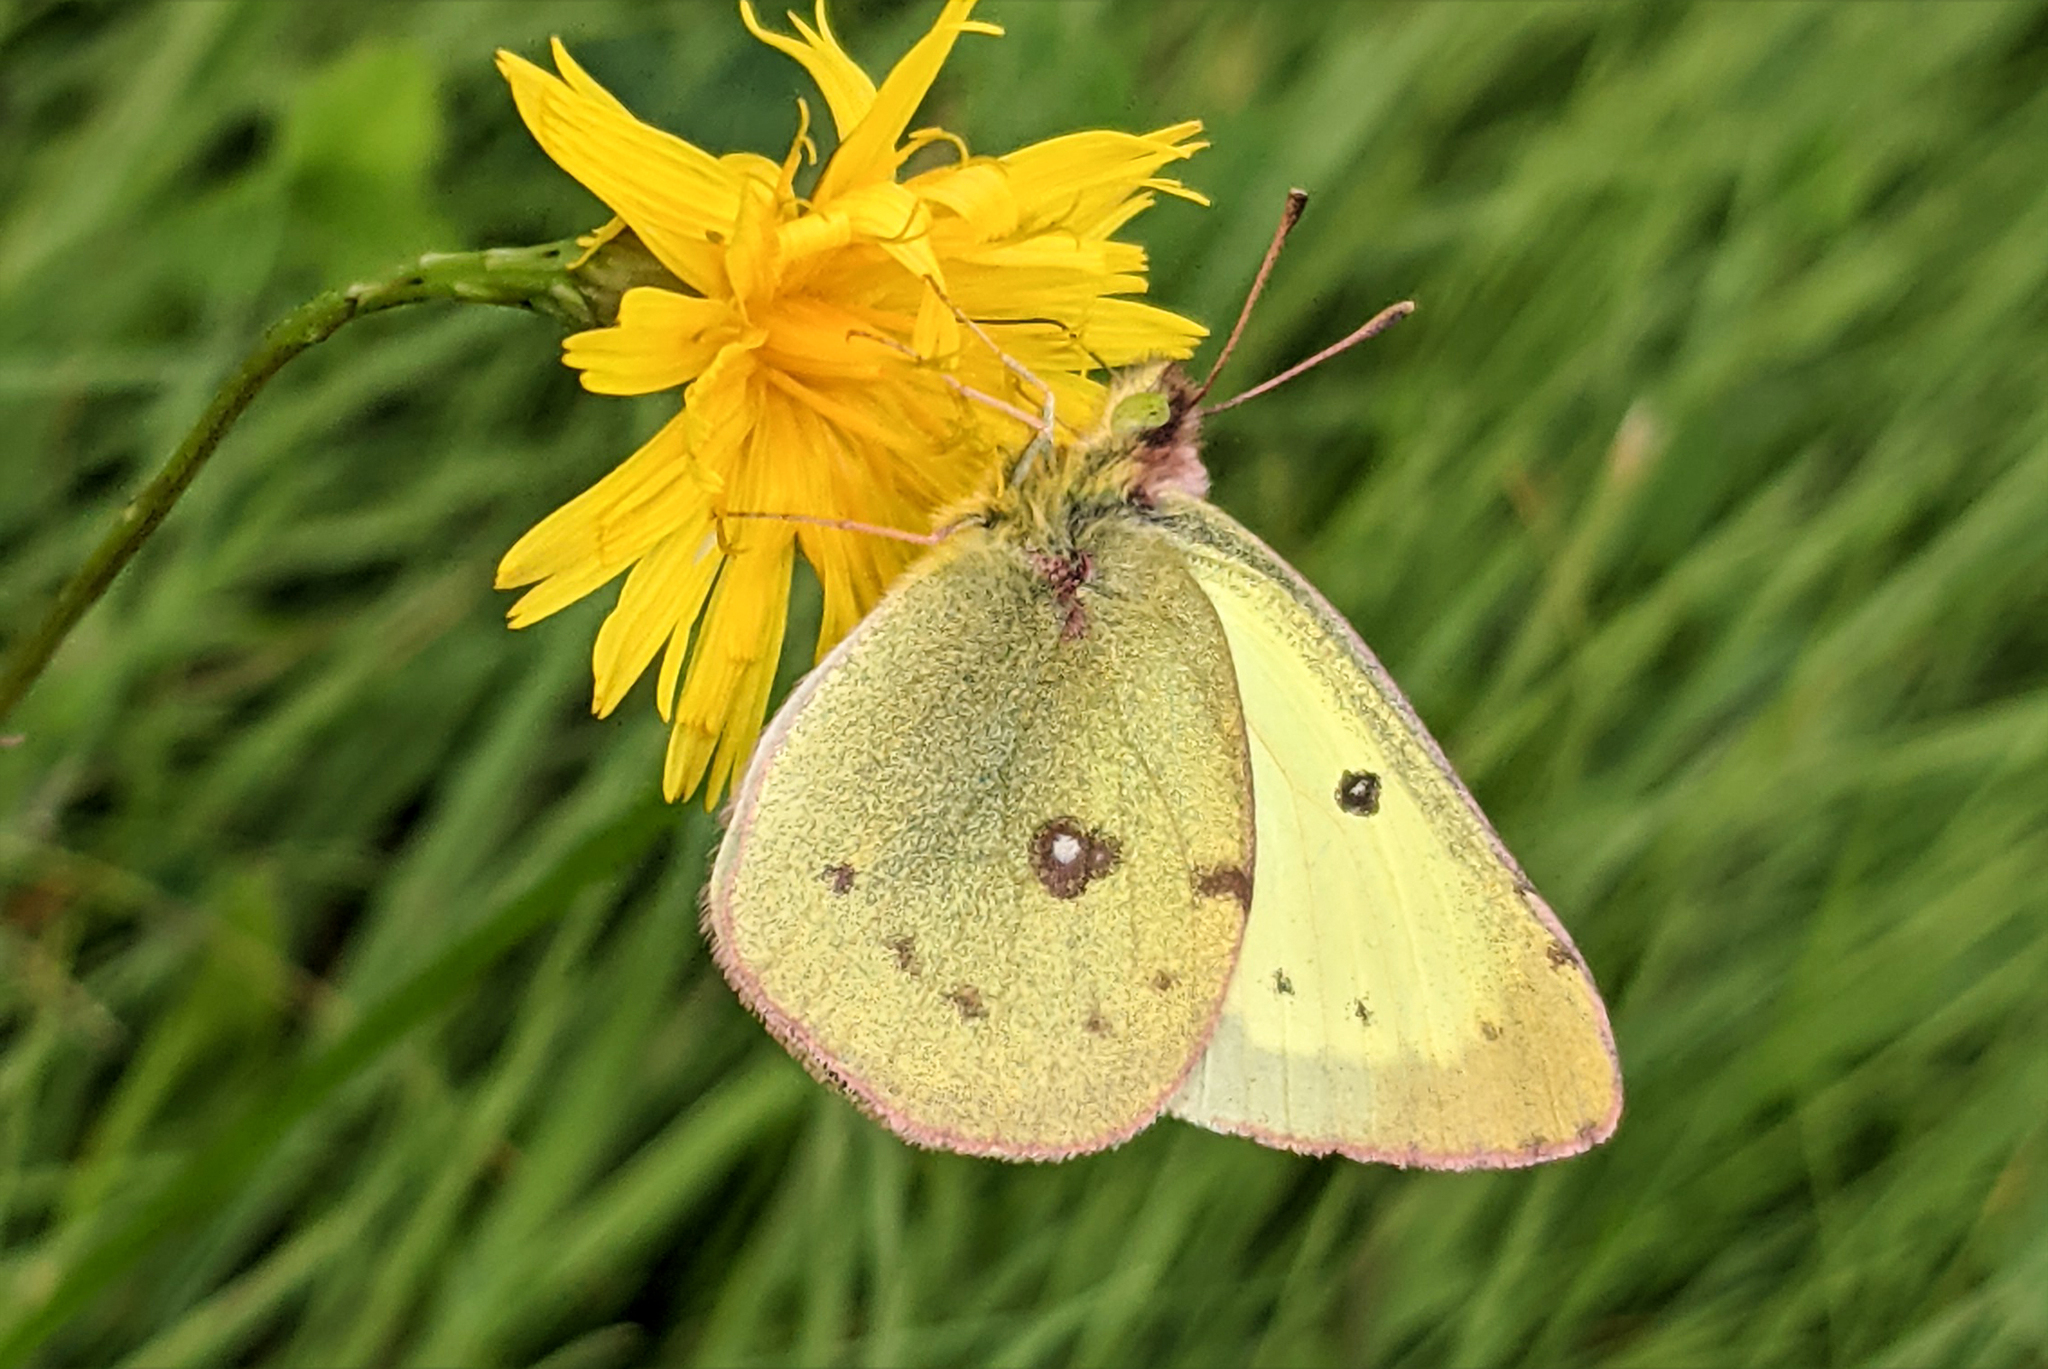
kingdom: Animalia
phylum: Arthropoda
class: Insecta
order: Lepidoptera
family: Pieridae
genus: Colias
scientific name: Colias philodice
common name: Clouded sulphur
